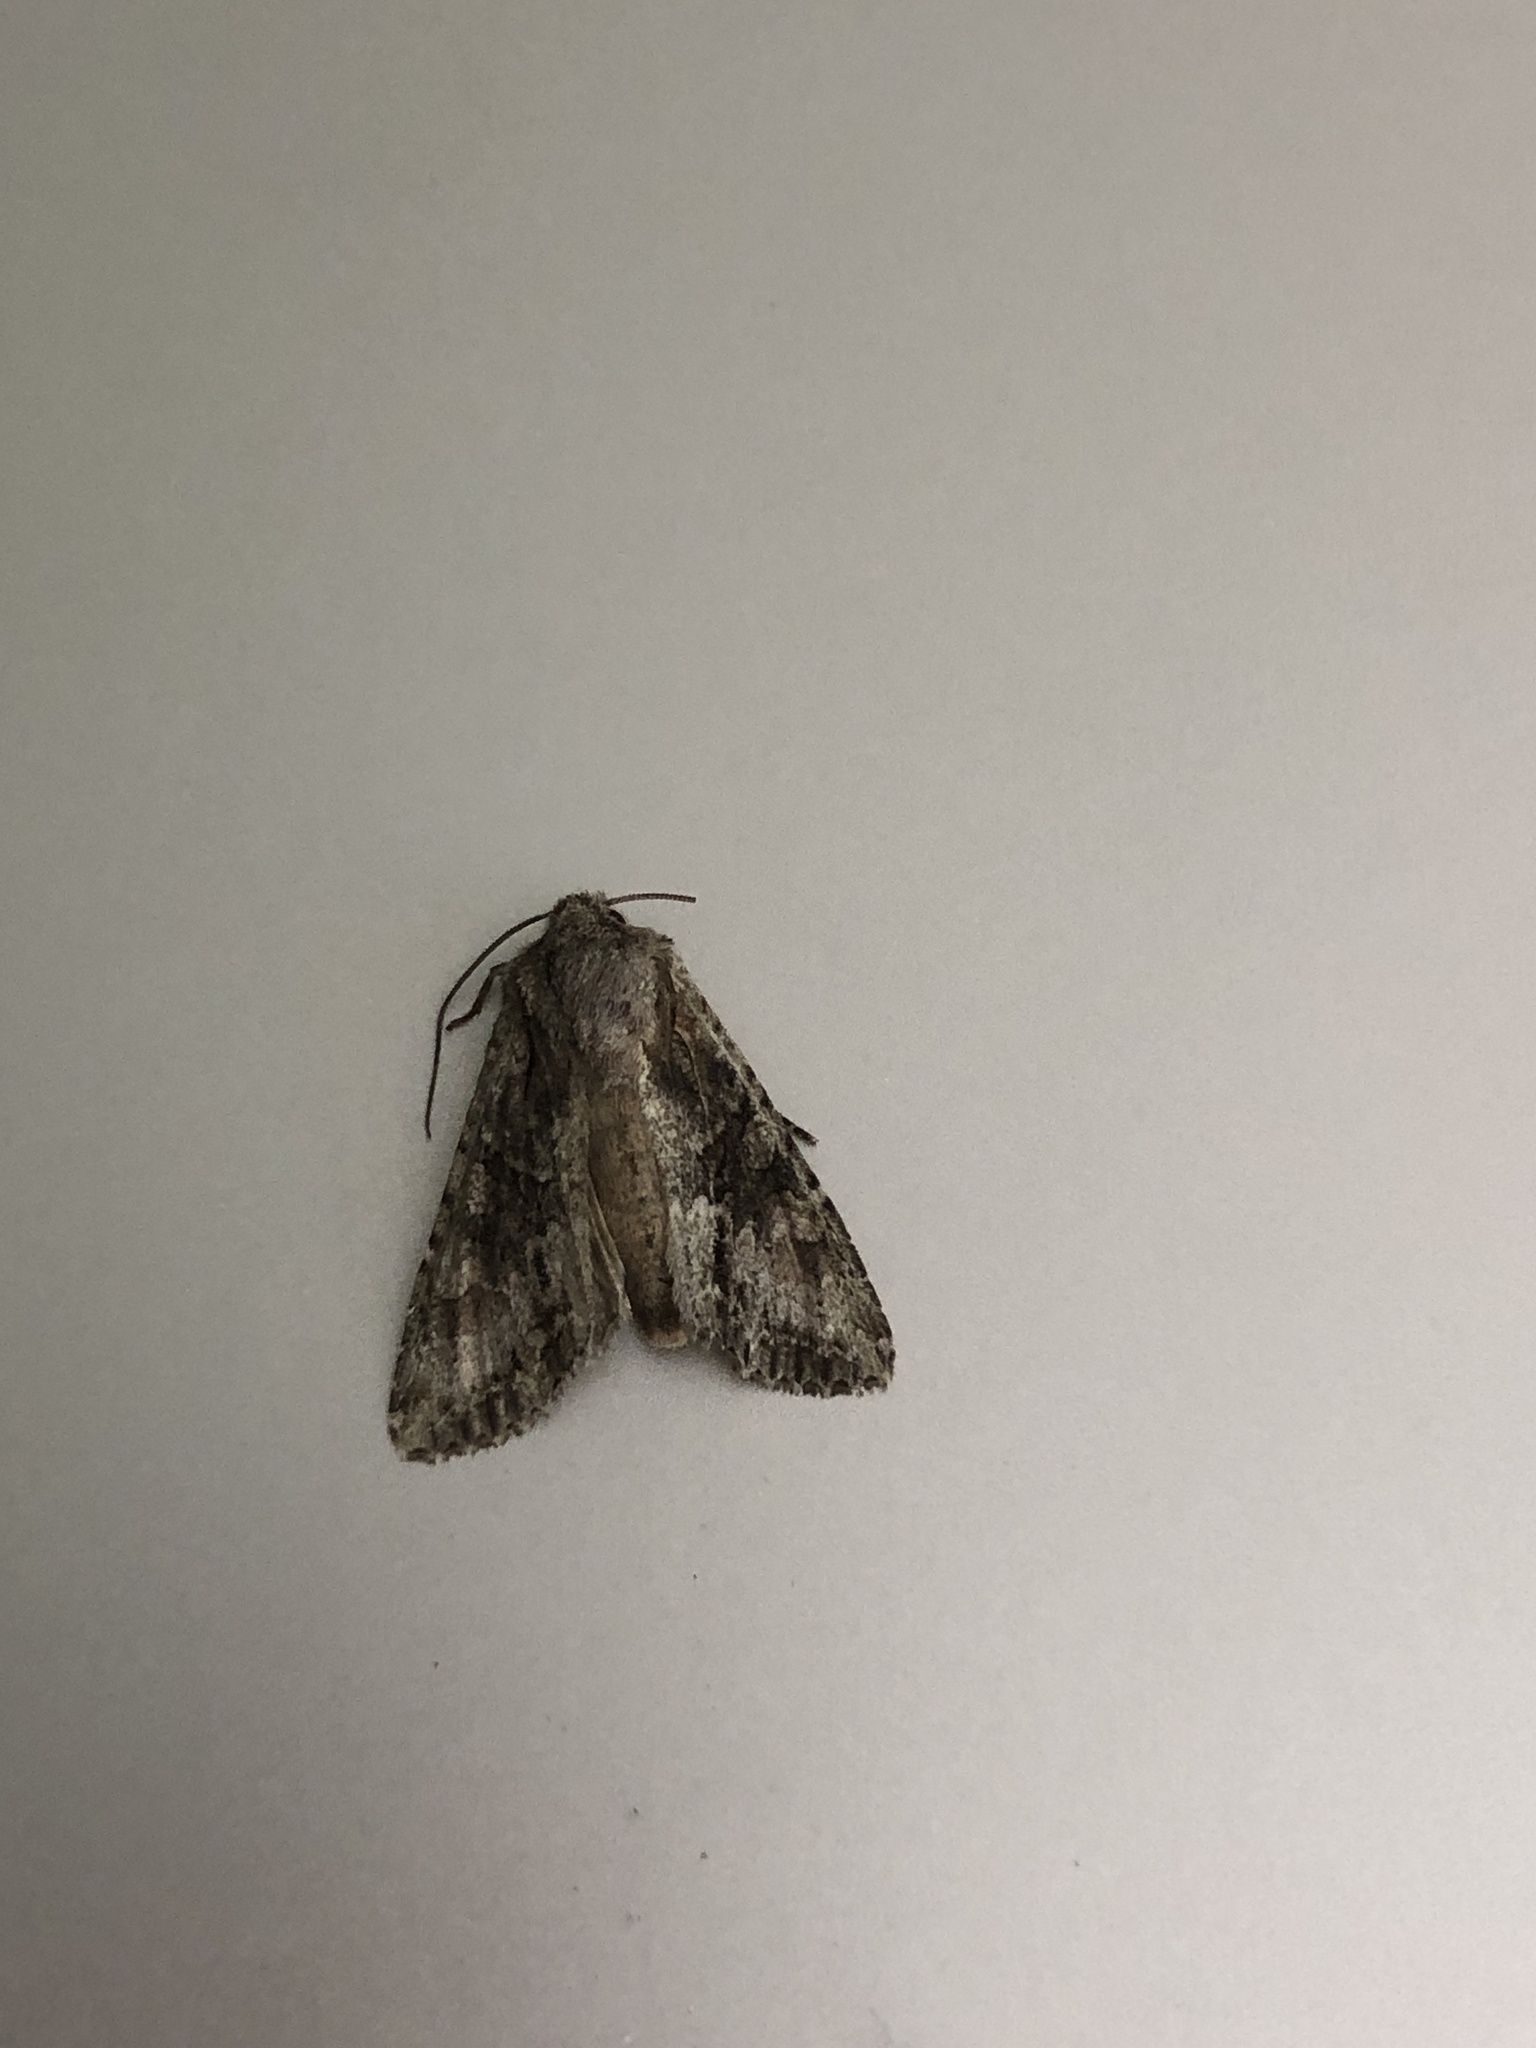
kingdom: Animalia
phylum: Arthropoda
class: Insecta
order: Lepidoptera
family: Noctuidae
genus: Ichneutica
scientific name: Ichneutica mutans
